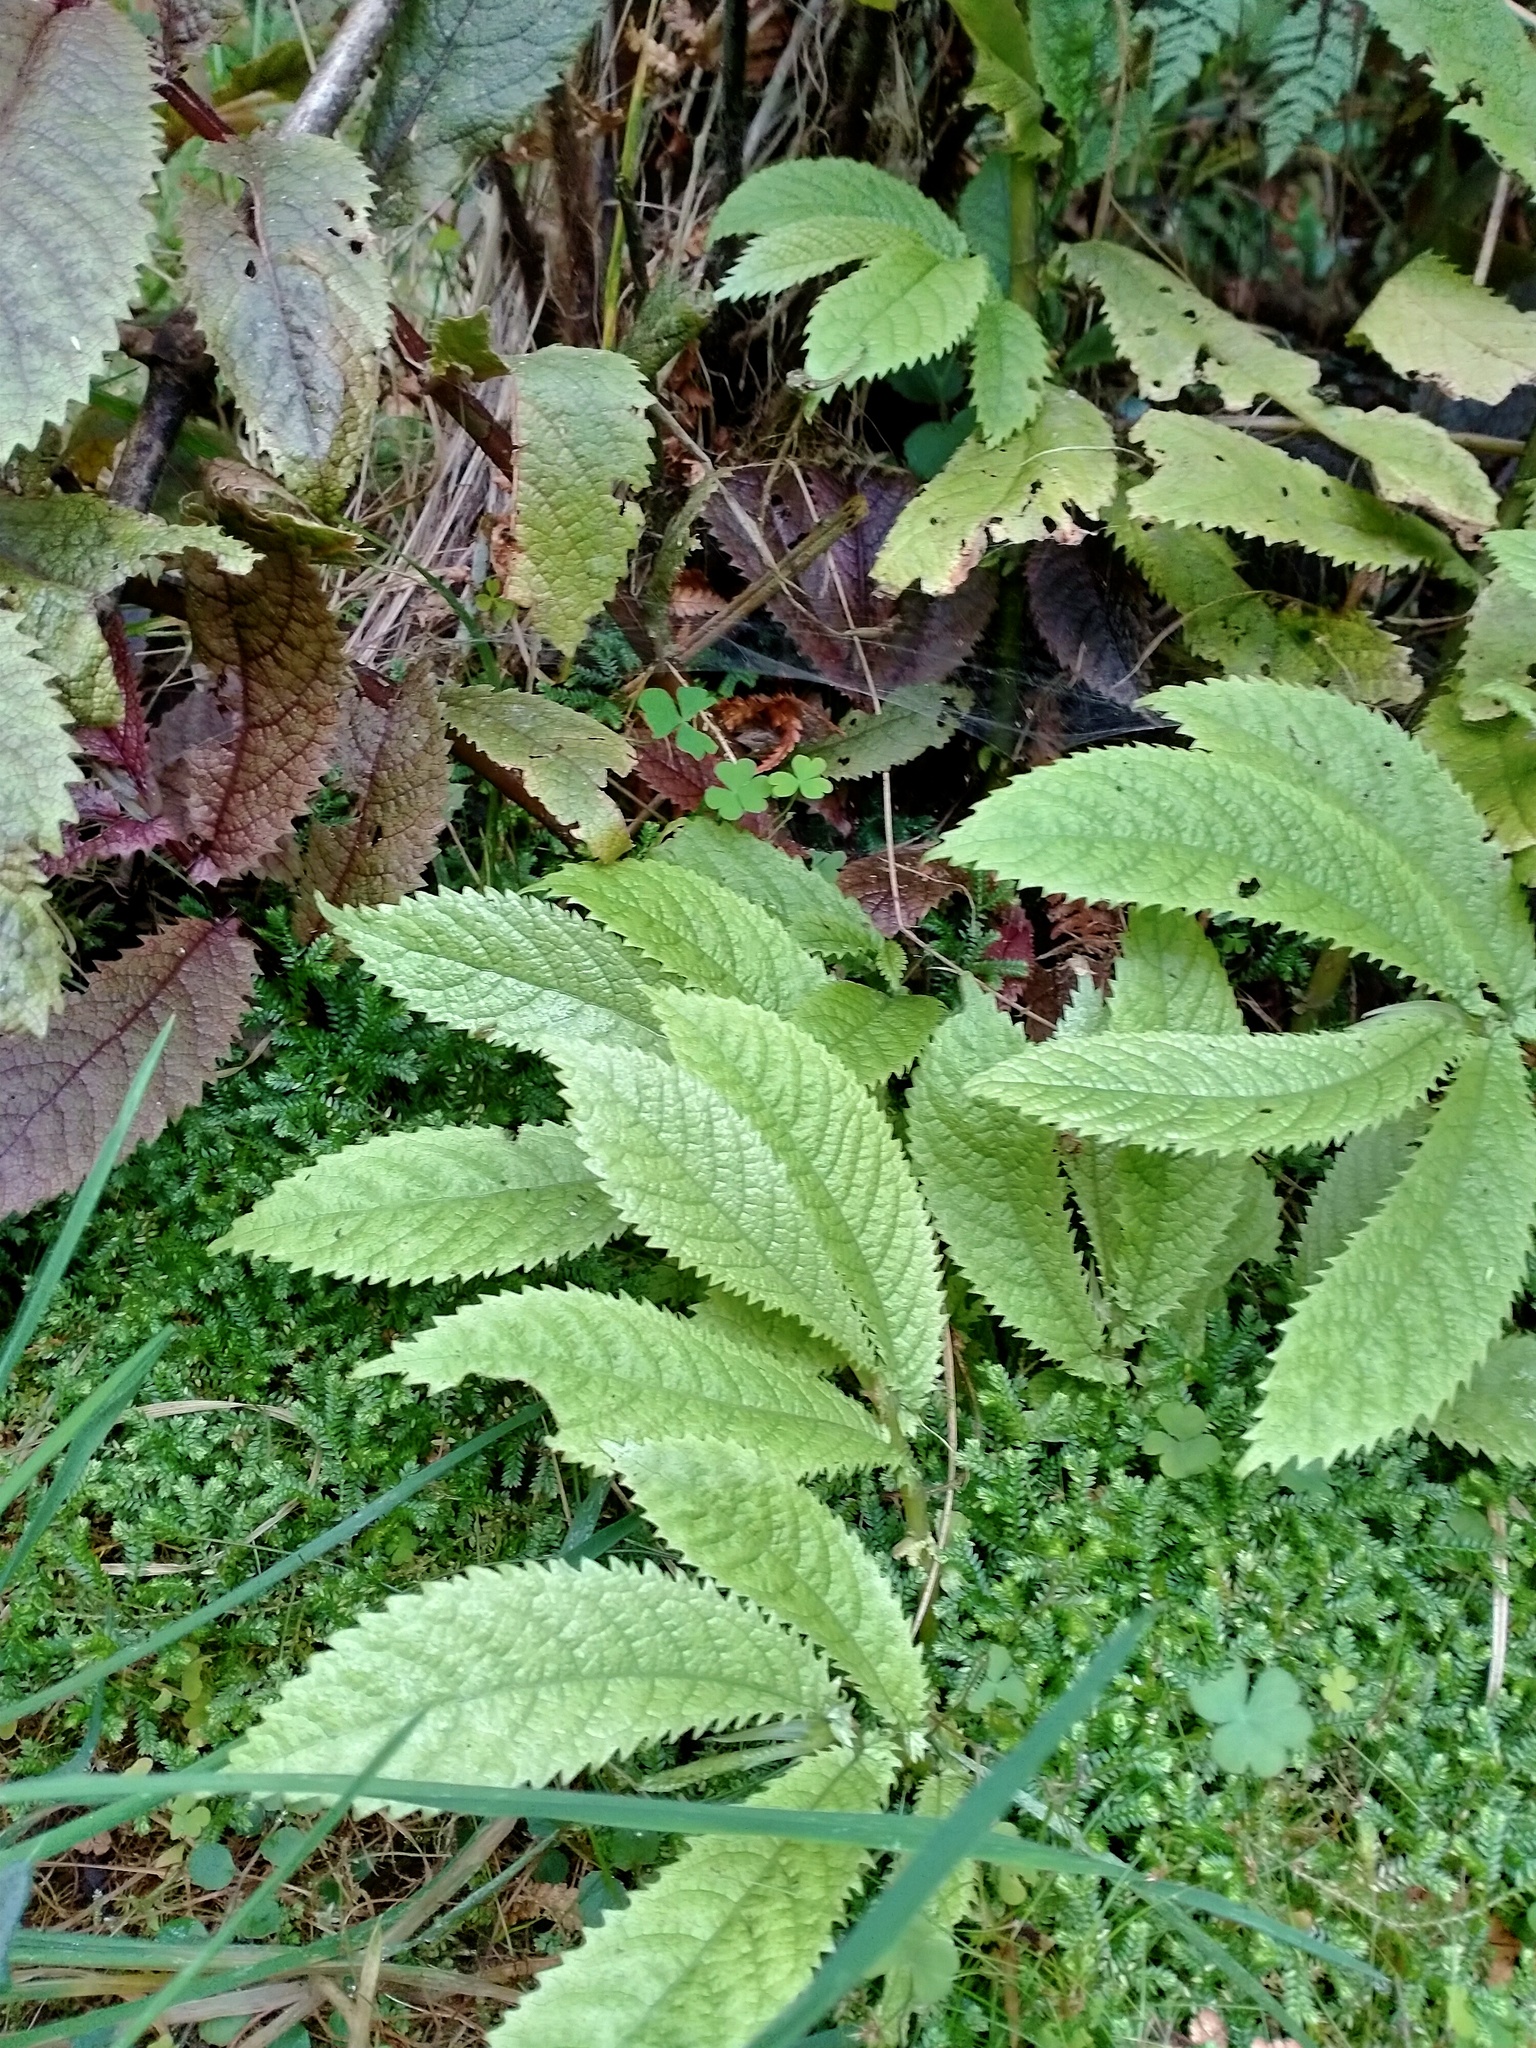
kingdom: Plantae
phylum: Tracheophyta
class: Magnoliopsida
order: Rosales
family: Urticaceae
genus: Elatostema
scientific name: Elatostema rugosum
